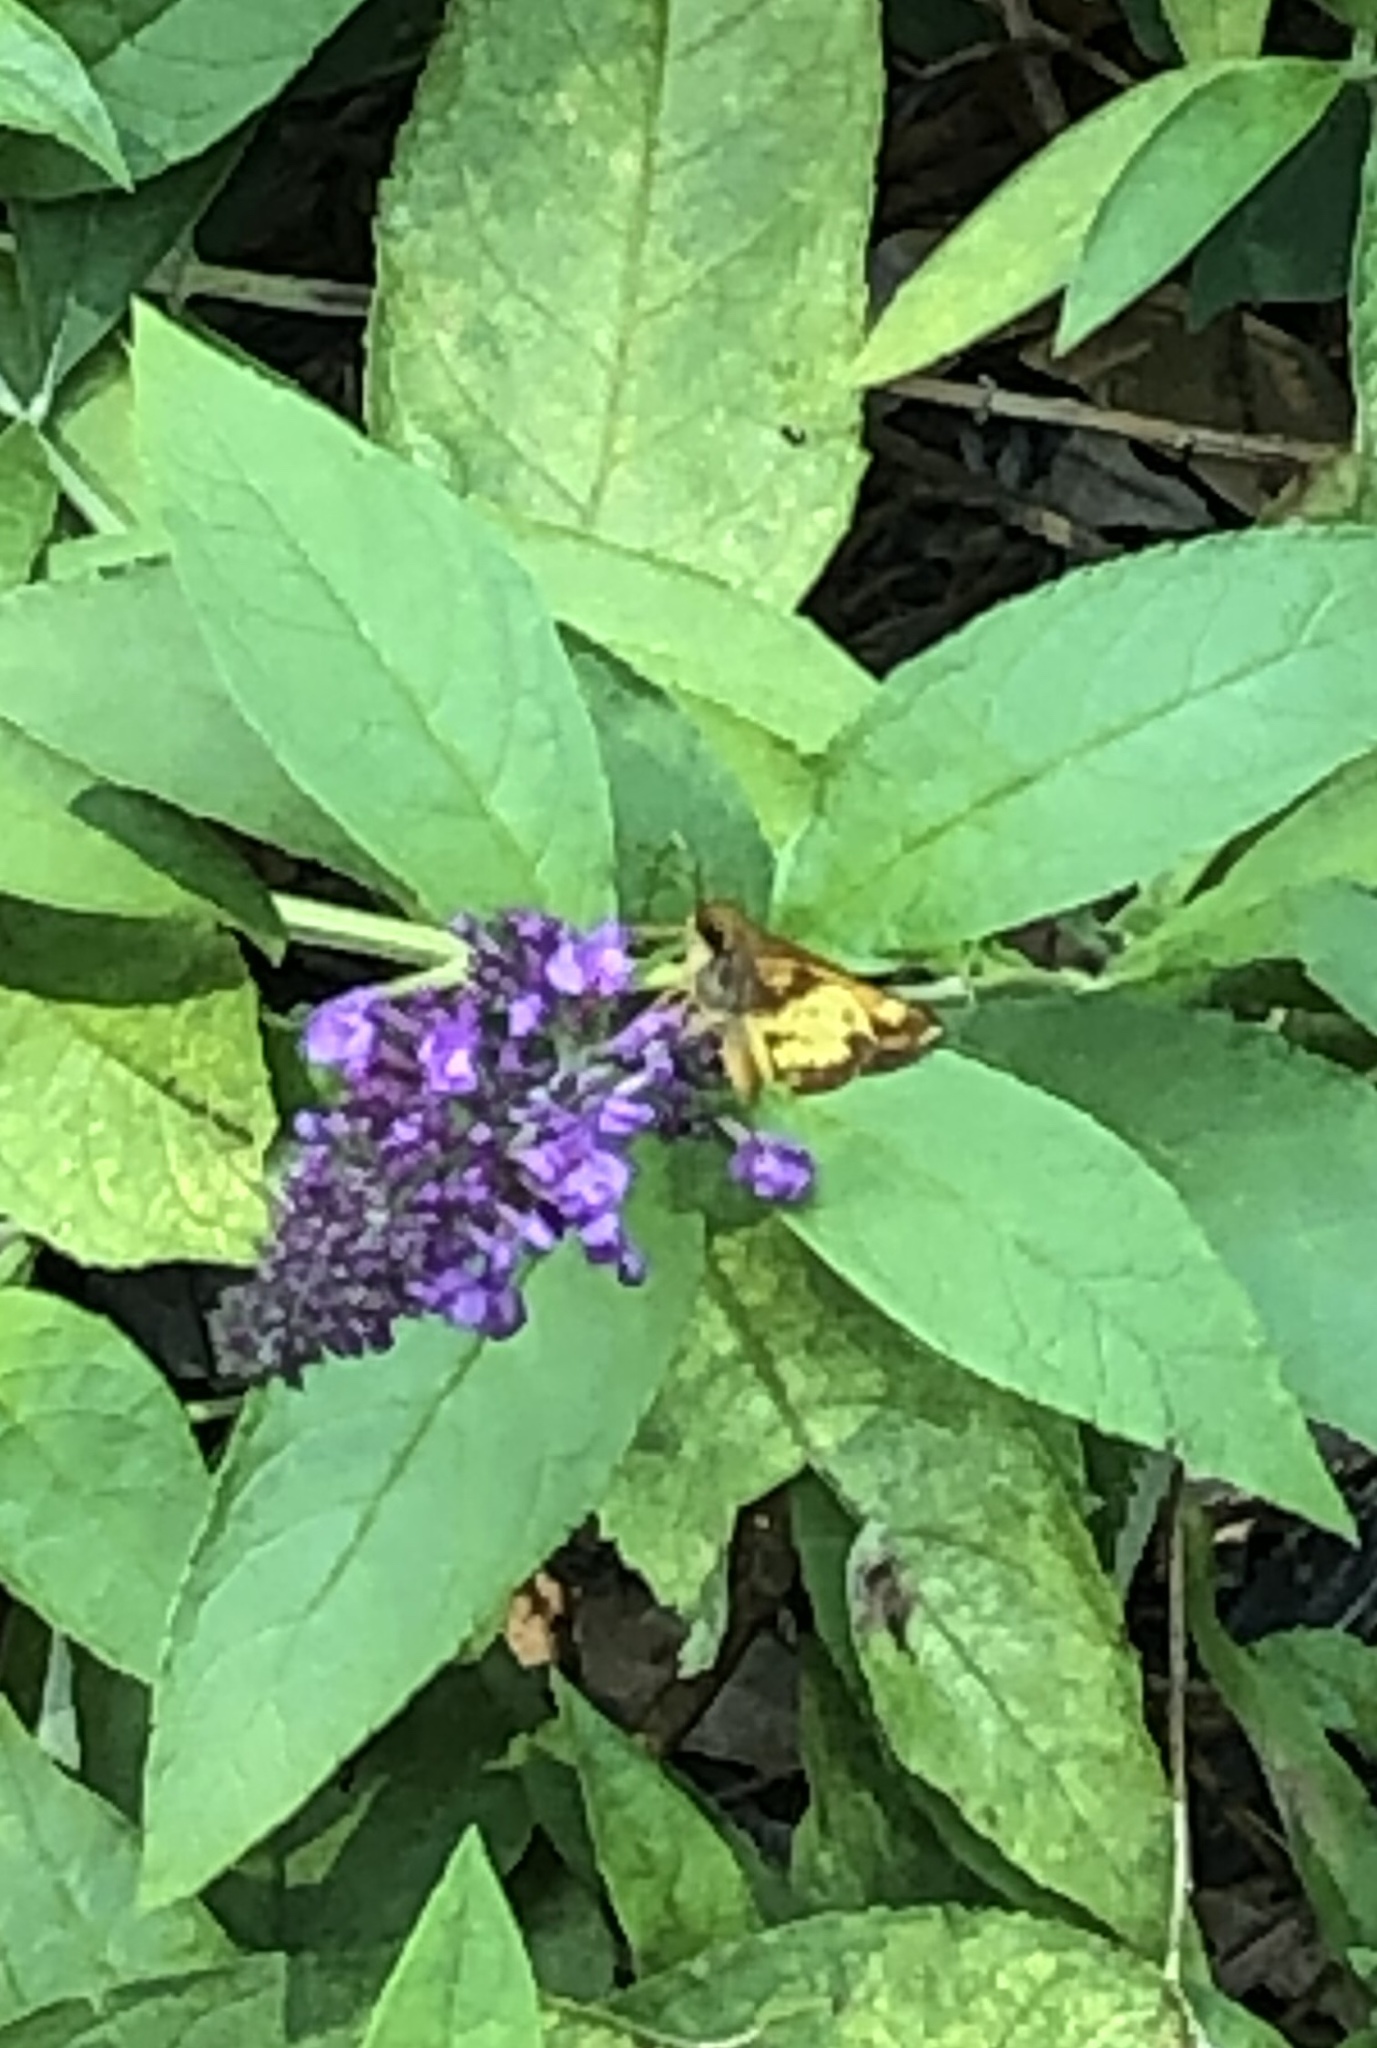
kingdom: Animalia
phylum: Arthropoda
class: Insecta
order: Lepidoptera
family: Hesperiidae
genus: Lon
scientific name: Lon zabulon
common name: Zabulon skipper
